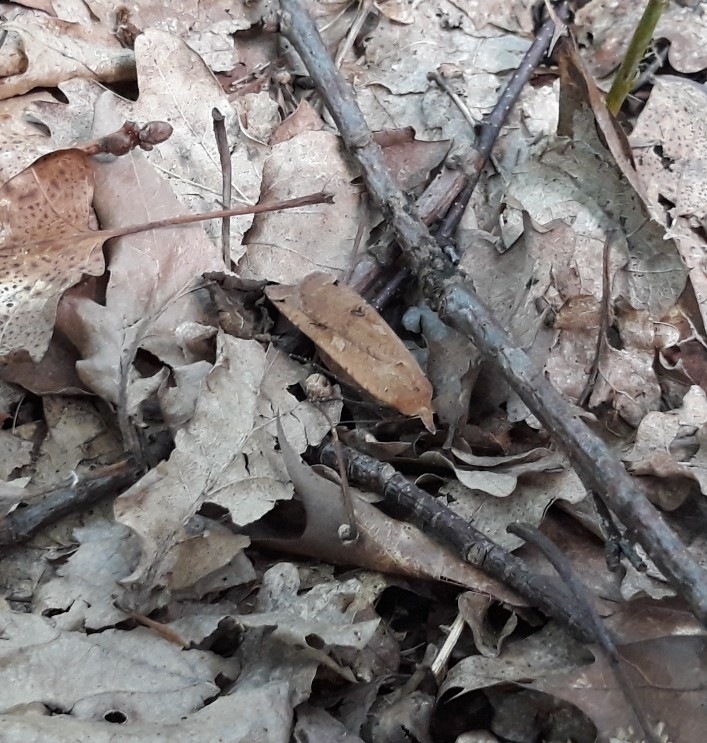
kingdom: Animalia
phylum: Arthropoda
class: Insecta
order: Lepidoptera
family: Noctuidae
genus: Noctua
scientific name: Noctua pronuba
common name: Large yellow underwing
